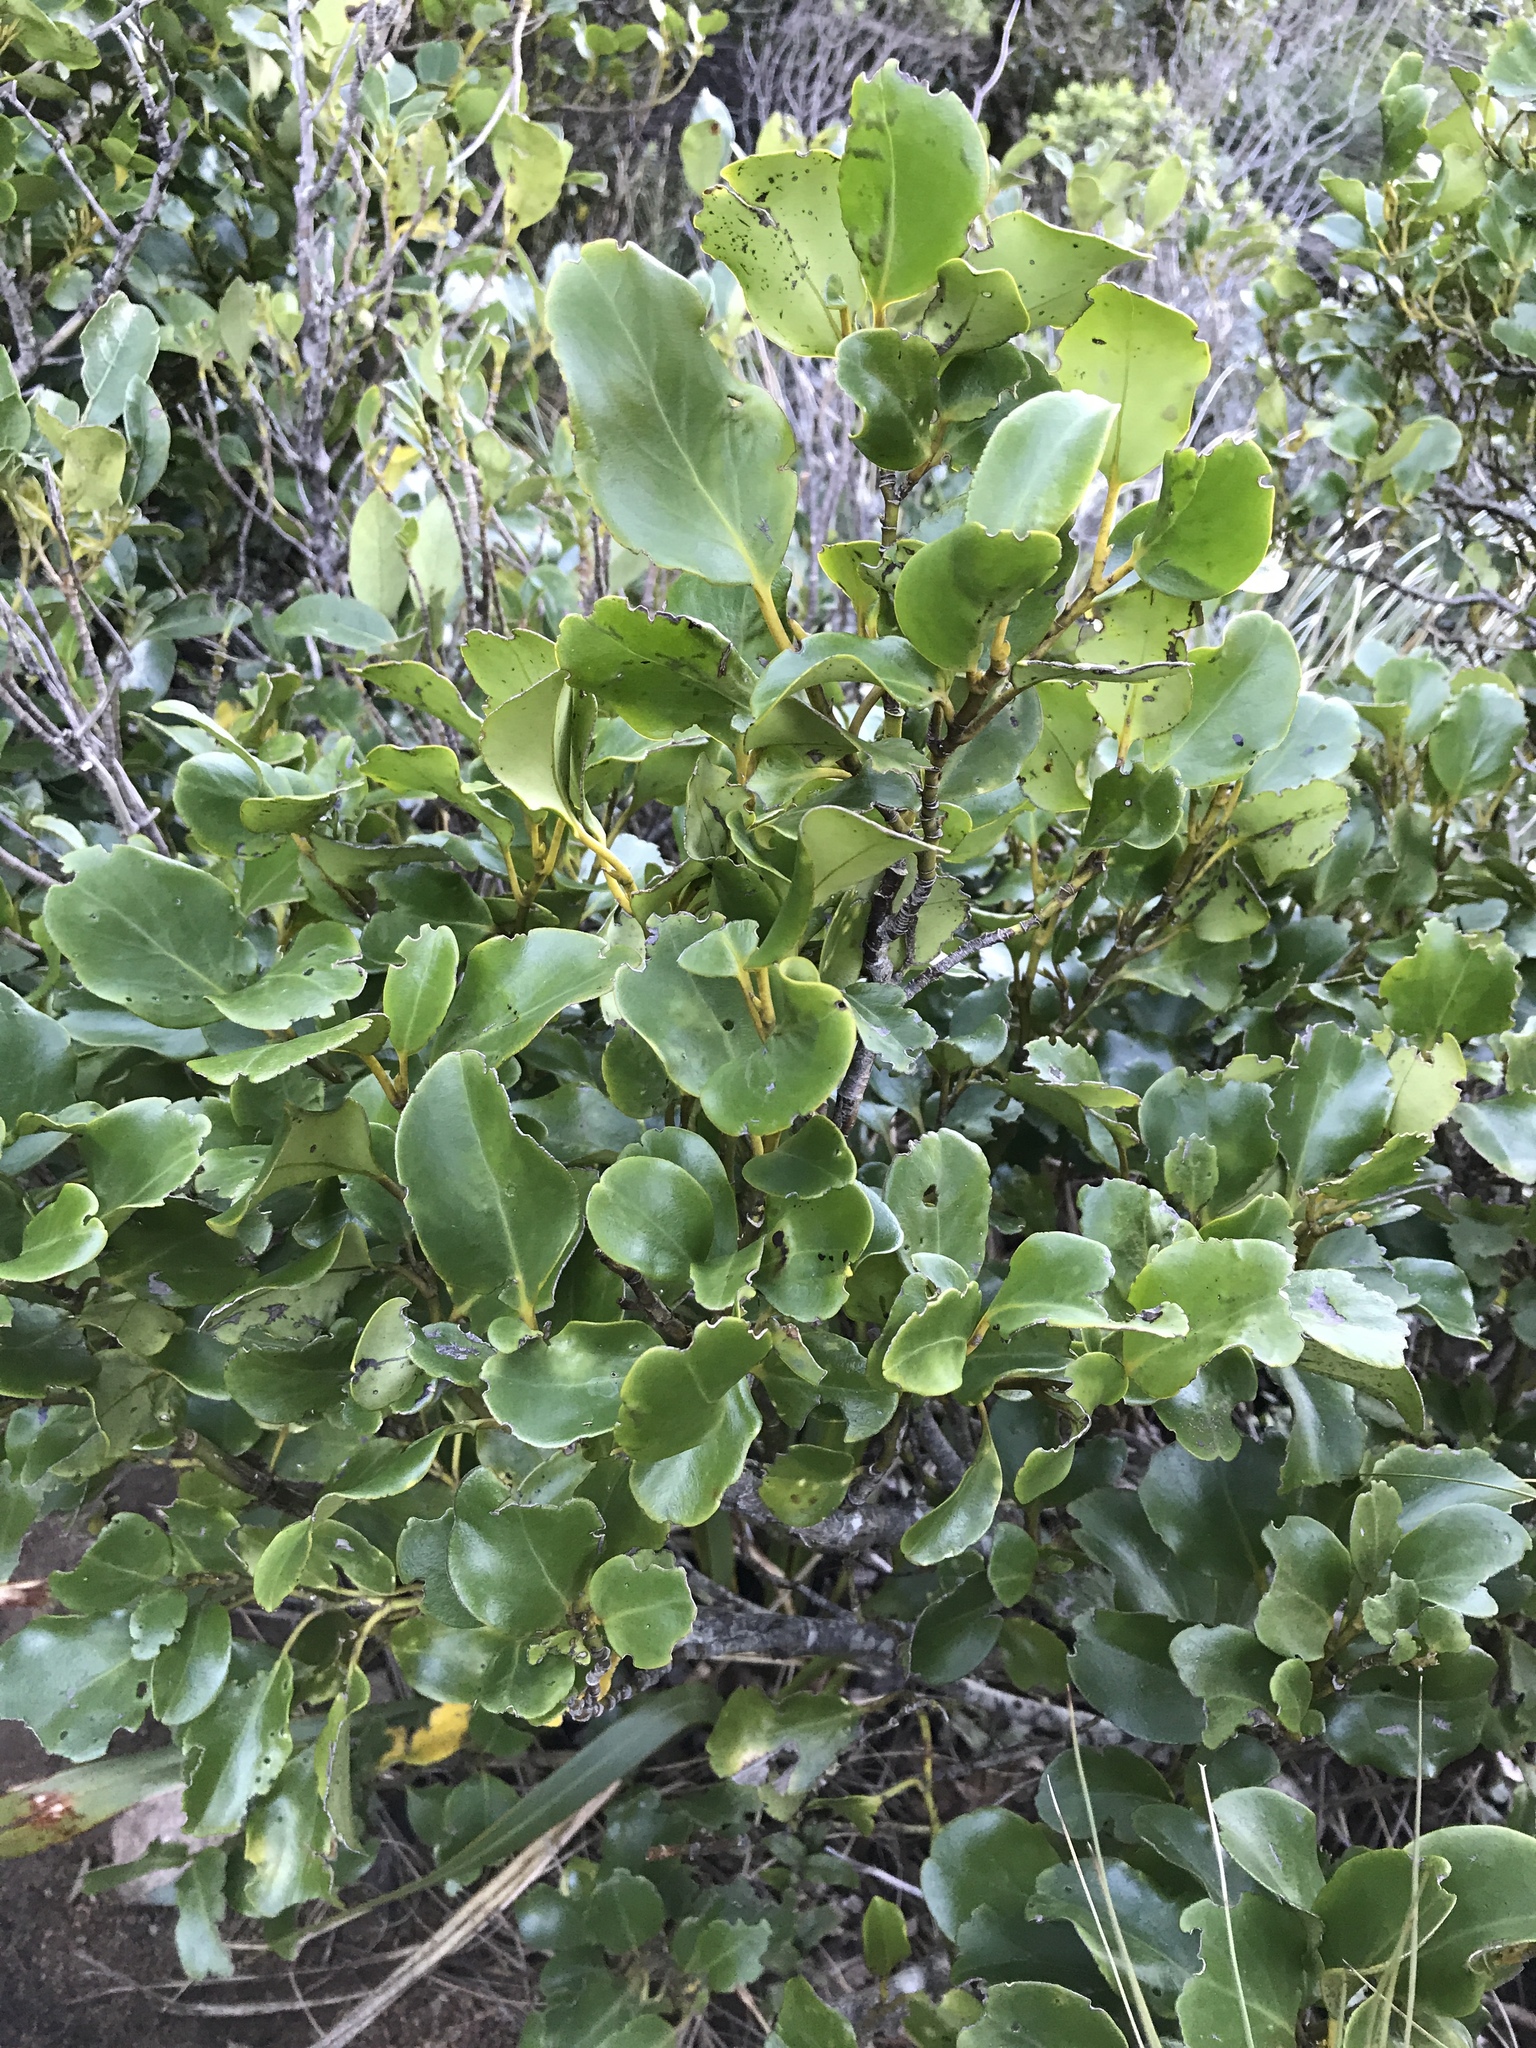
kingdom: Plantae
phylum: Tracheophyta
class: Magnoliopsida
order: Apiales
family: Griseliniaceae
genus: Griselinia
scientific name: Griselinia littoralis
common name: New zealand broadleaf
